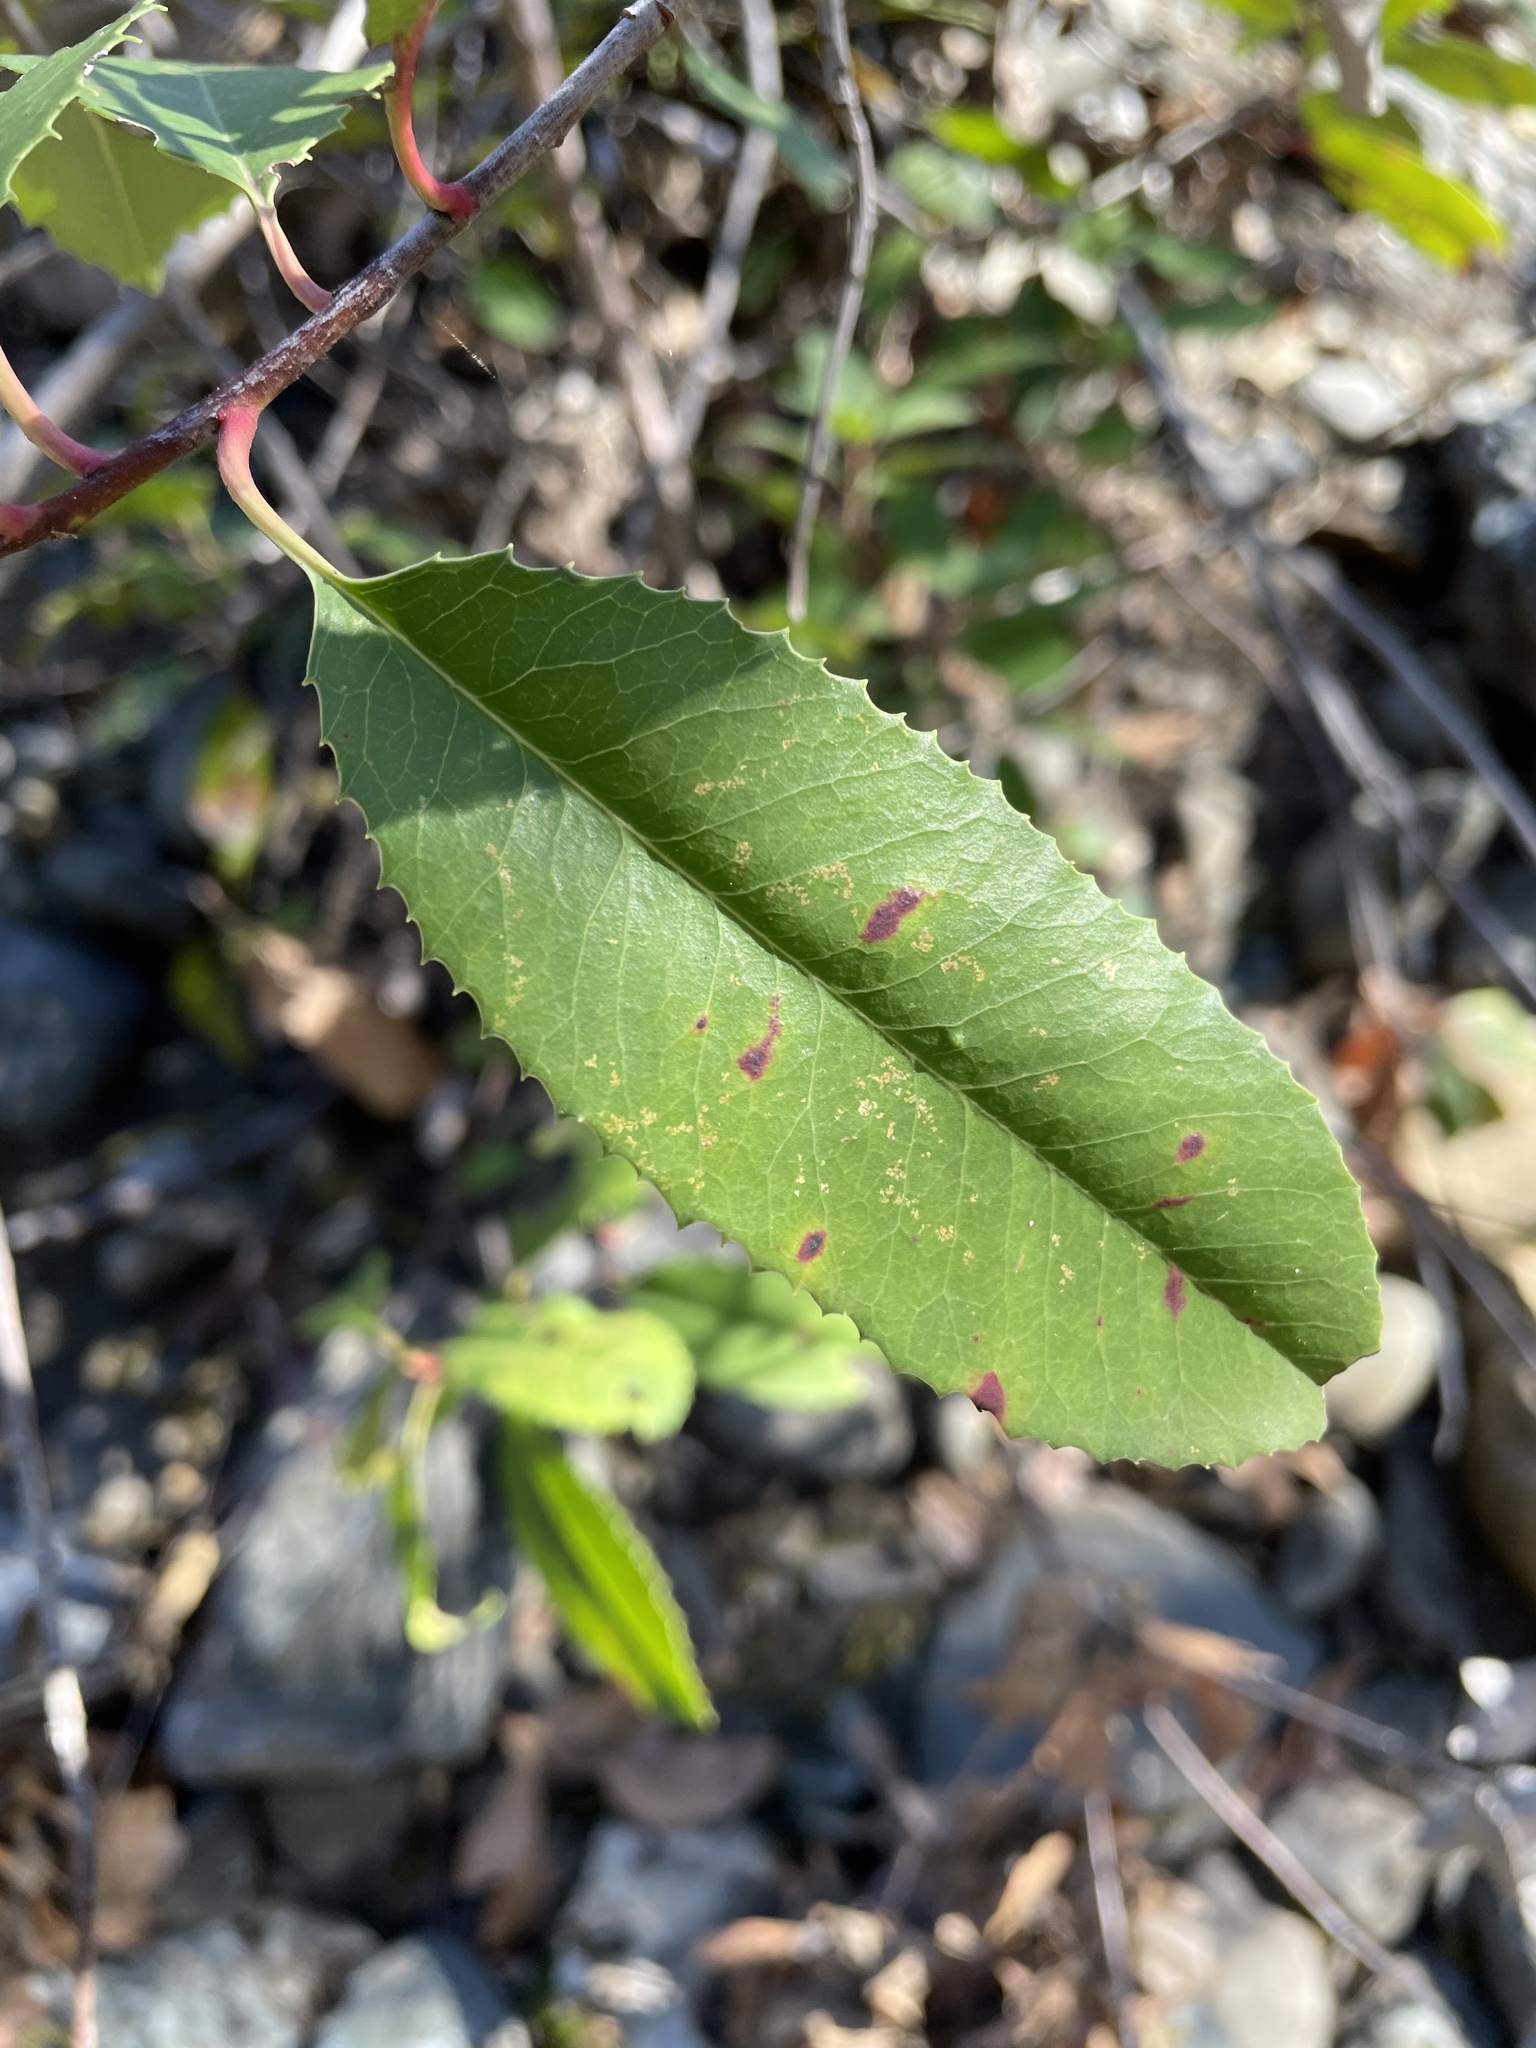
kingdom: Plantae
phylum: Tracheophyta
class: Magnoliopsida
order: Rosales
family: Rosaceae
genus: Heteromeles
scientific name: Heteromeles arbutifolia
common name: California-holly
